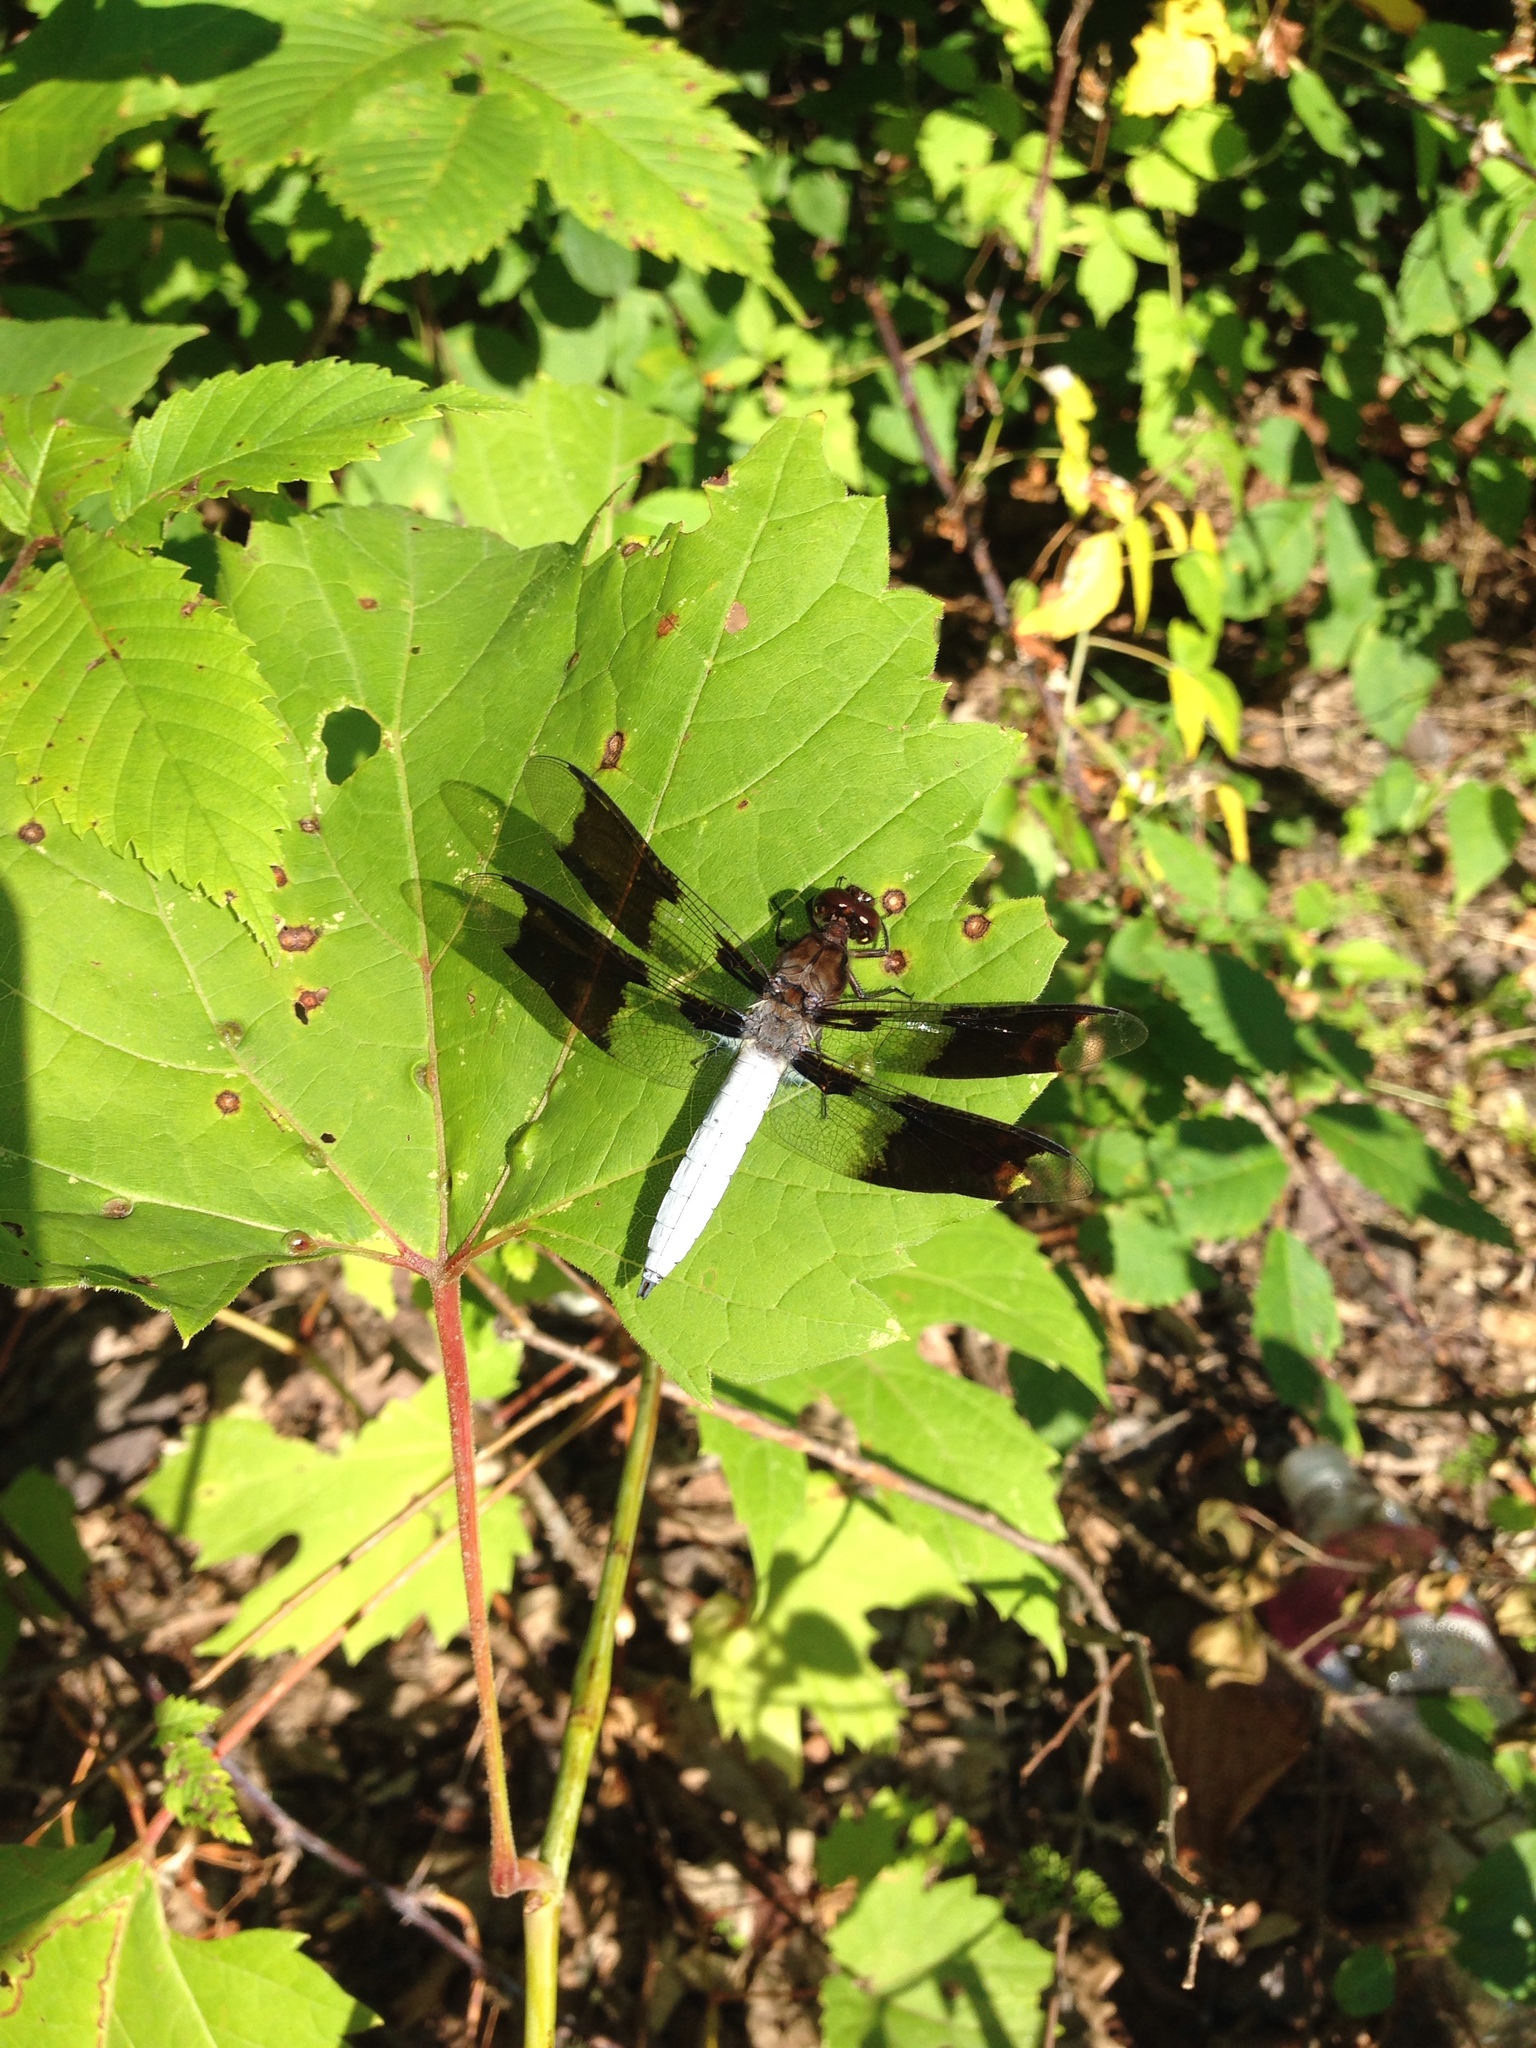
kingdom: Animalia
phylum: Arthropoda
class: Insecta
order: Odonata
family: Libellulidae
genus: Plathemis
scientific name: Plathemis lydia
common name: Common whitetail
